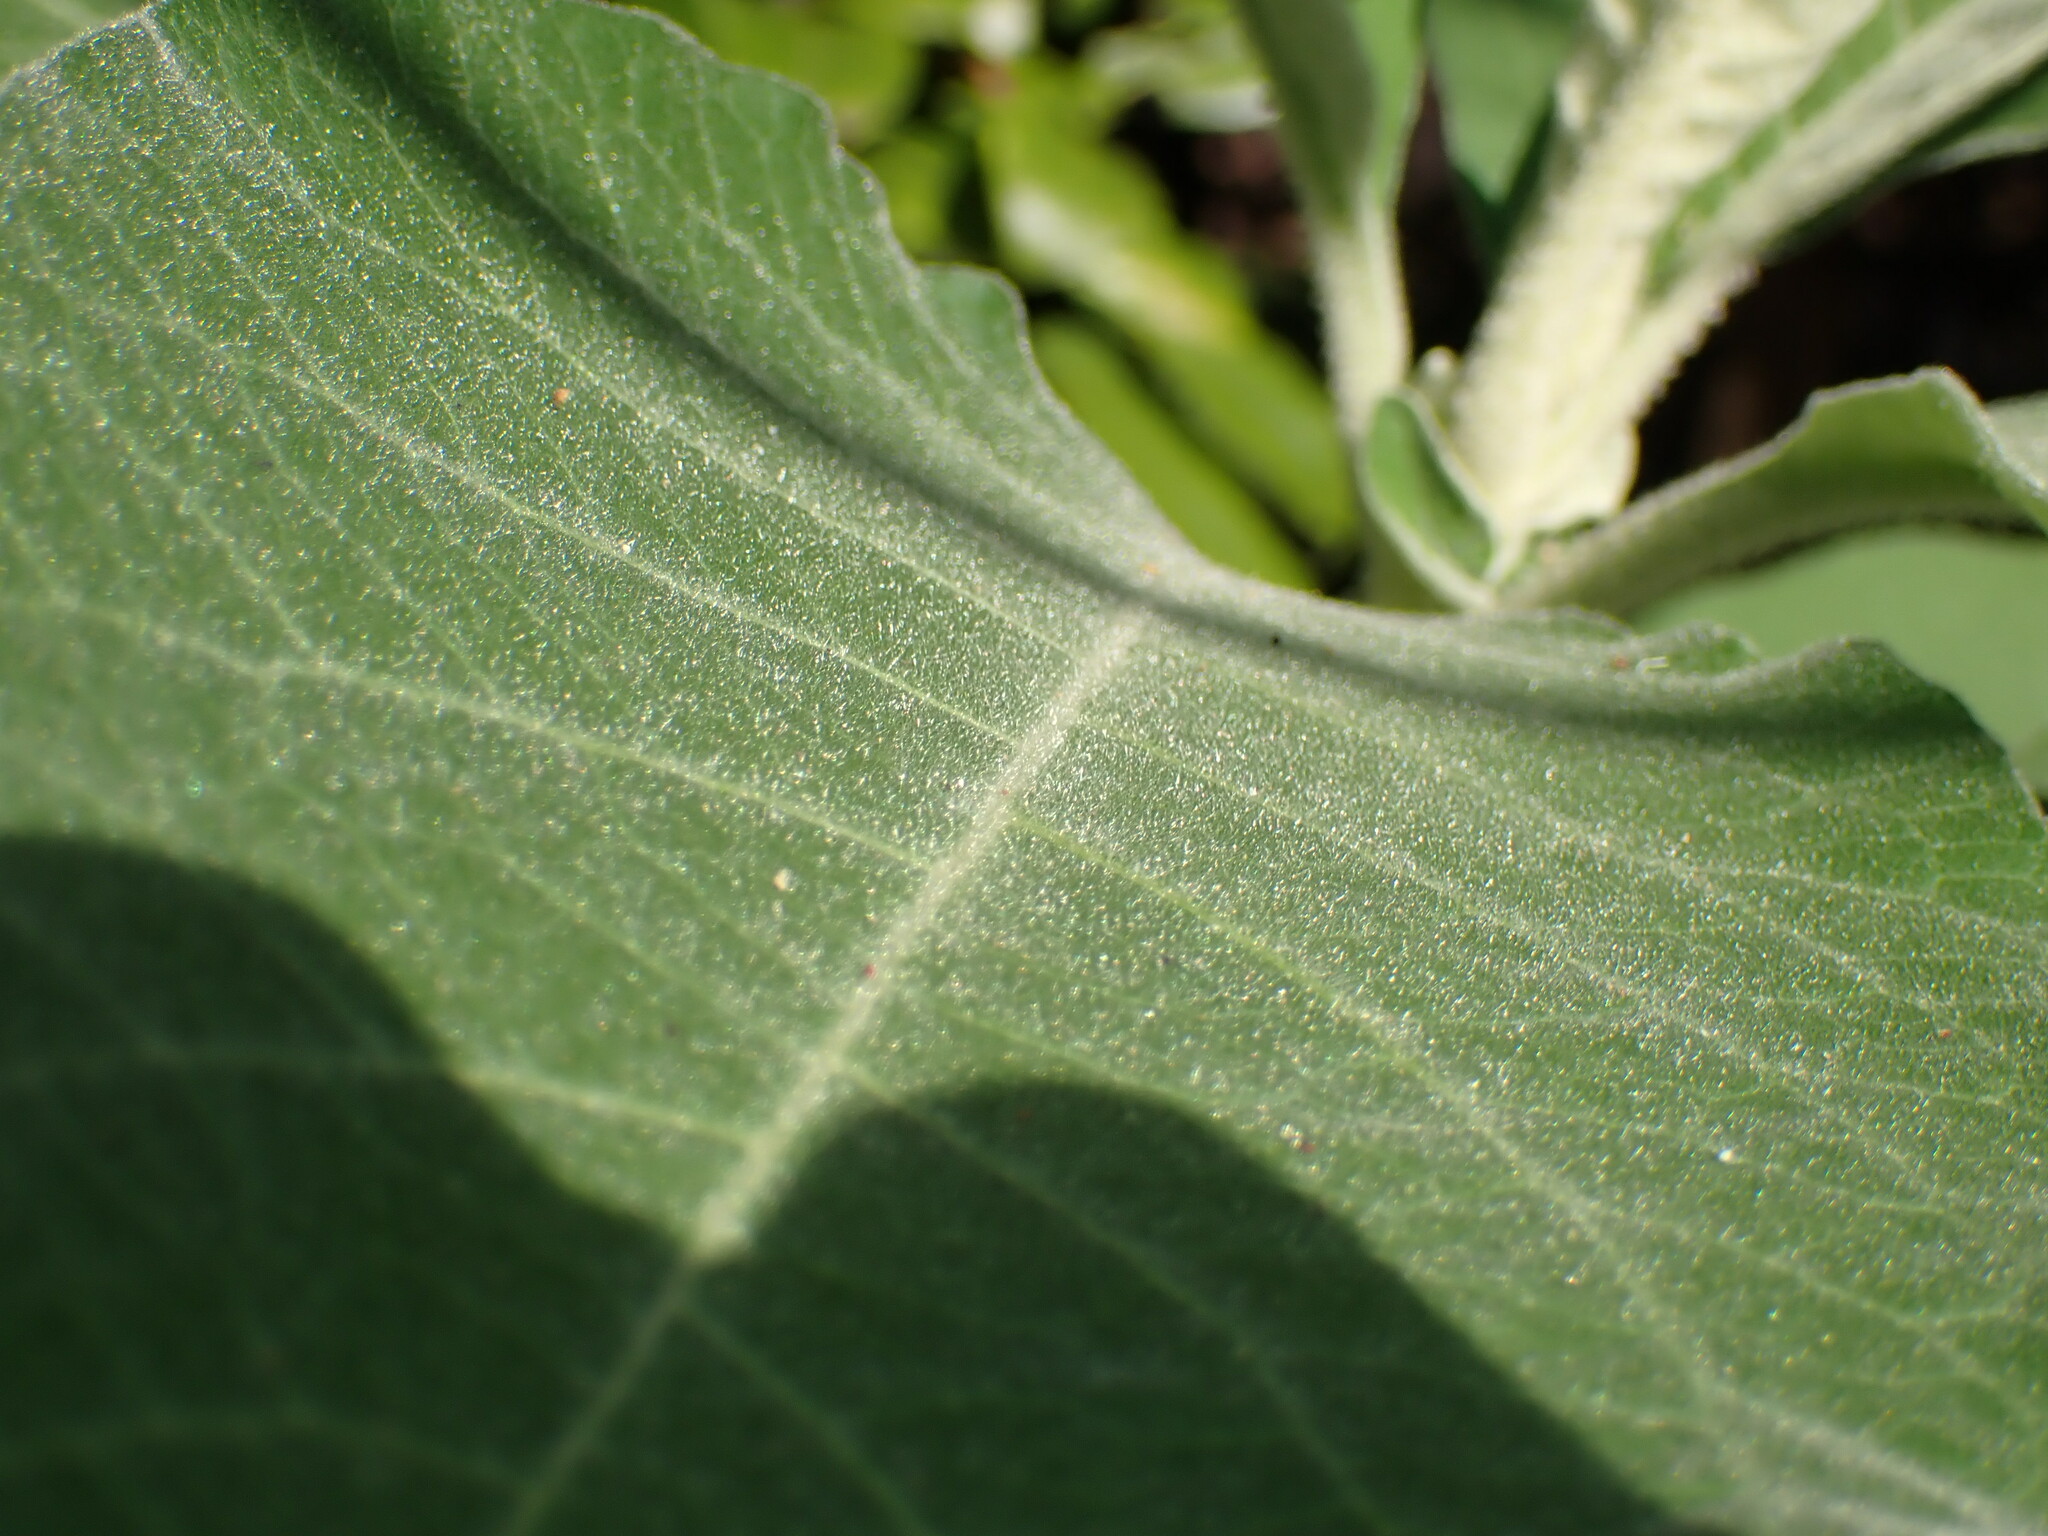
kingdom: Plantae
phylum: Tracheophyta
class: Magnoliopsida
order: Solanales
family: Solanaceae
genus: Solanum
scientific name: Solanum mauritianum
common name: Earleaf nightshade
